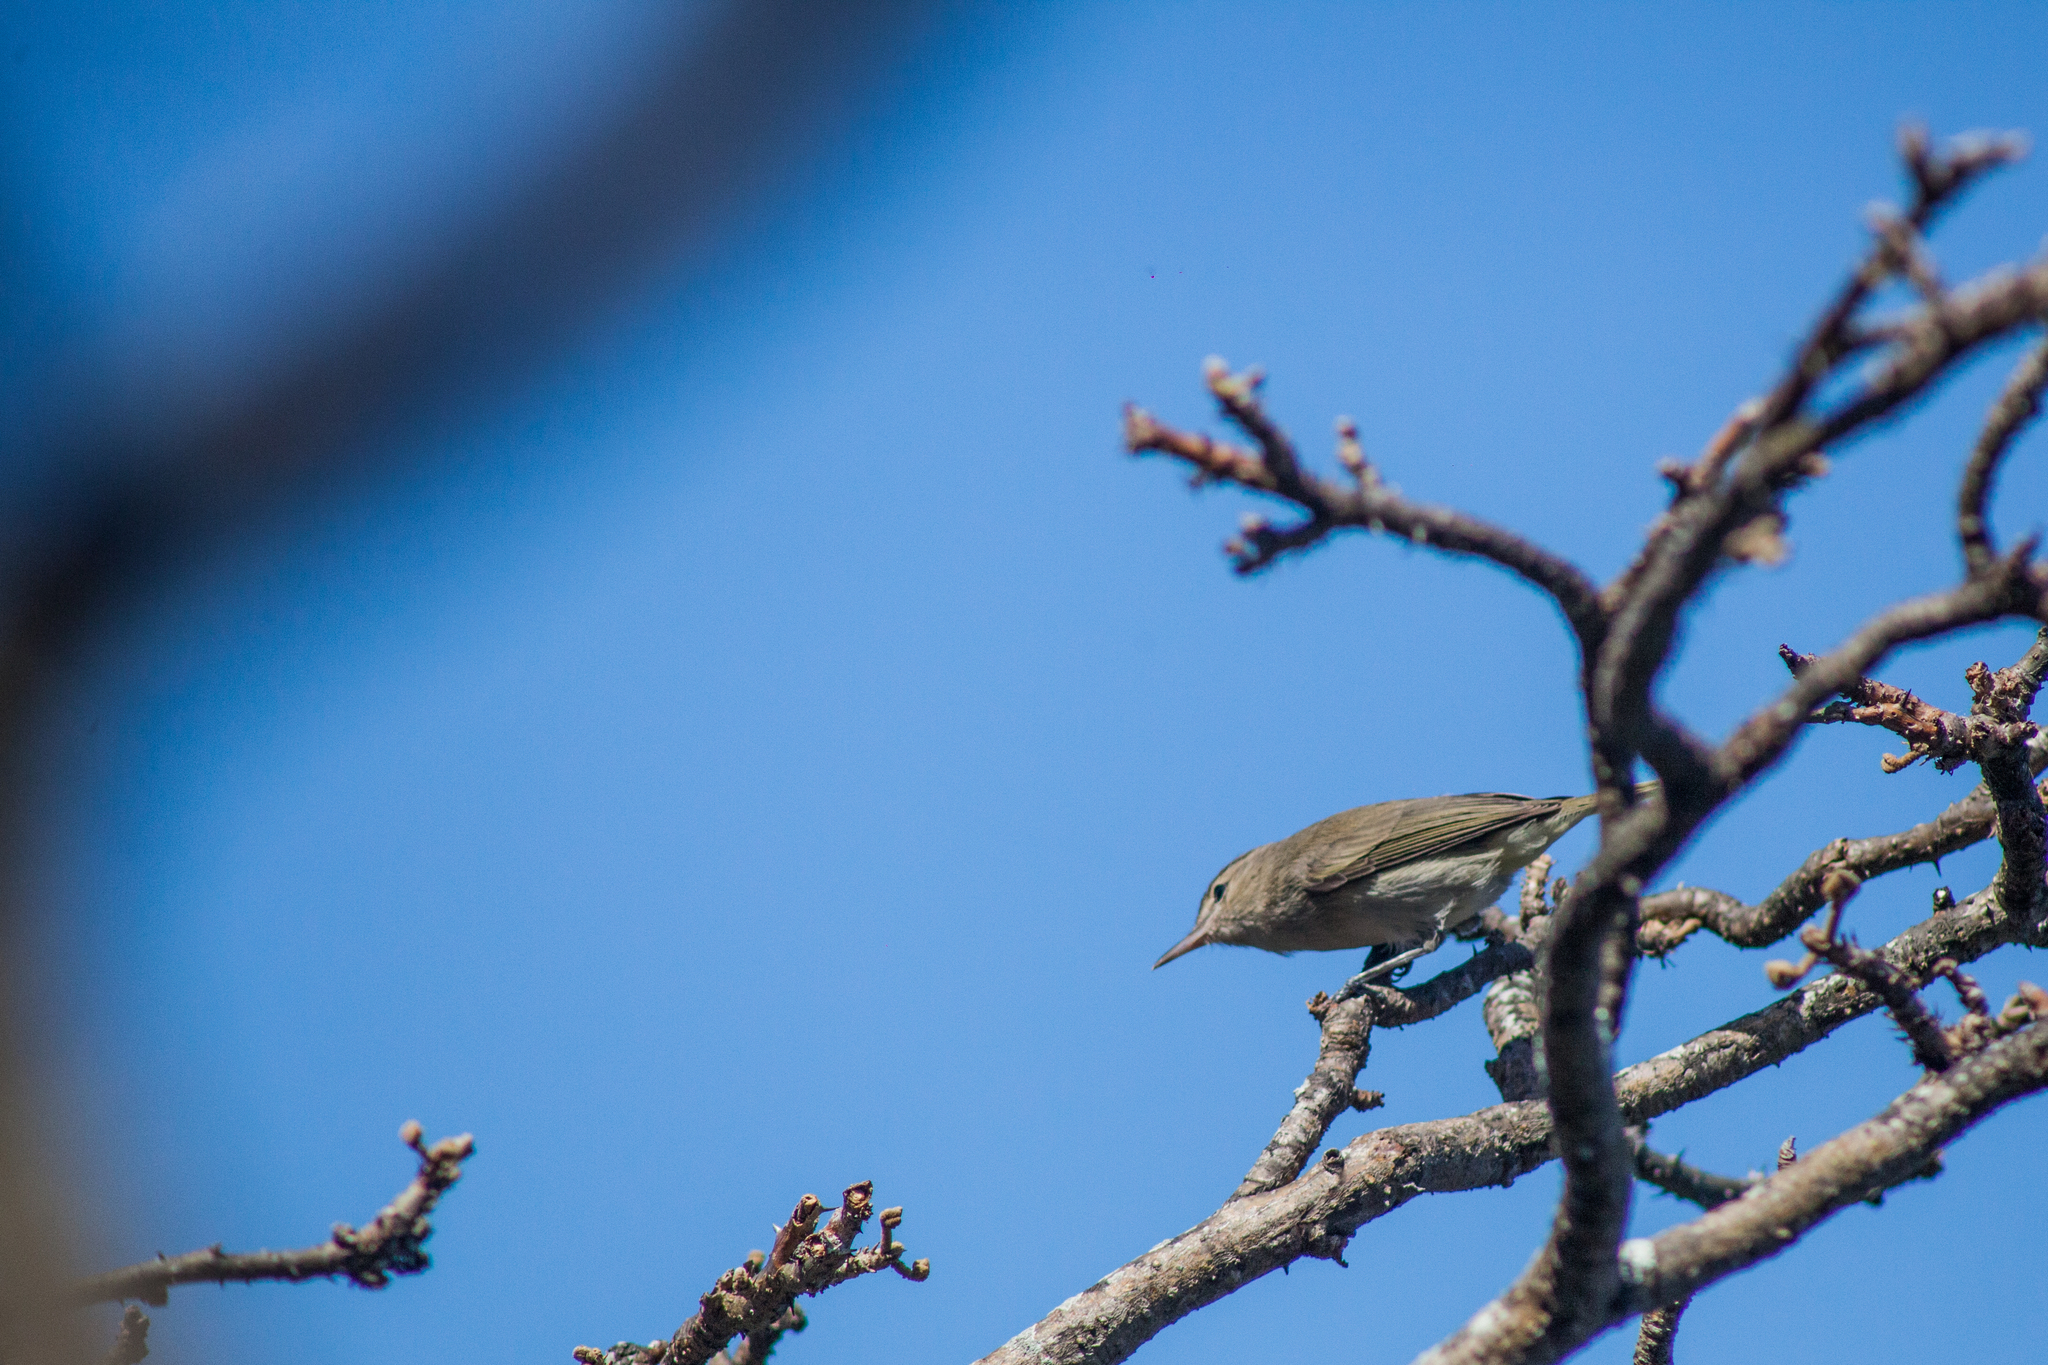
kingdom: Animalia
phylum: Chordata
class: Aves
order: Passeriformes
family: Vireonidae
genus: Vireo
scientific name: Vireo gracilirostris
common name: Noronha vireo
